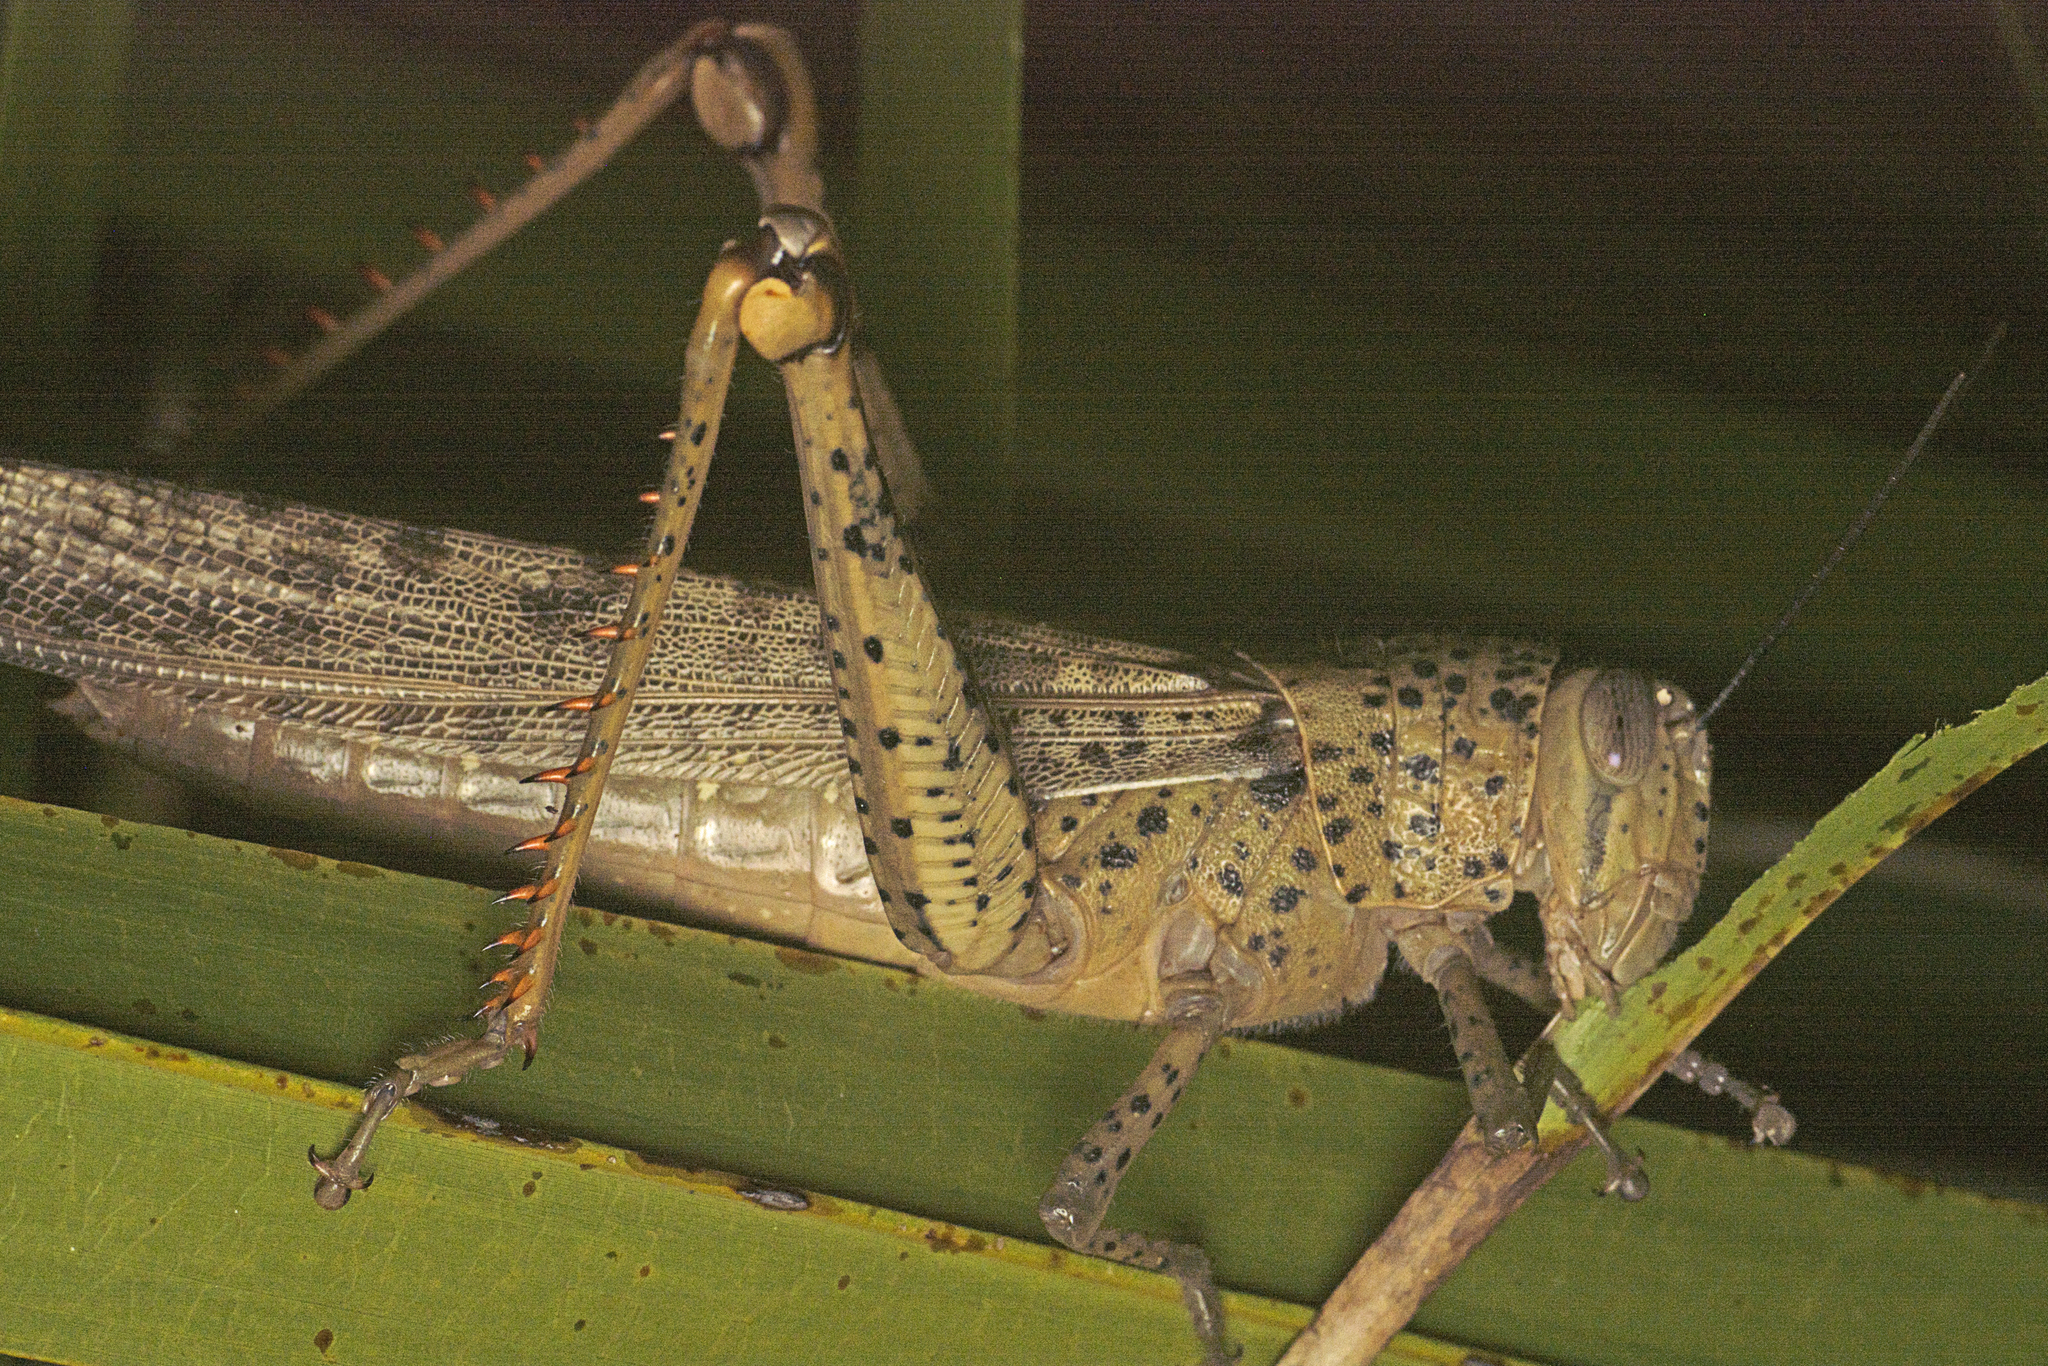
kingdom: Animalia
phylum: Arthropoda
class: Insecta
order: Orthoptera
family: Acrididae
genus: Valanga
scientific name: Valanga irregularis
